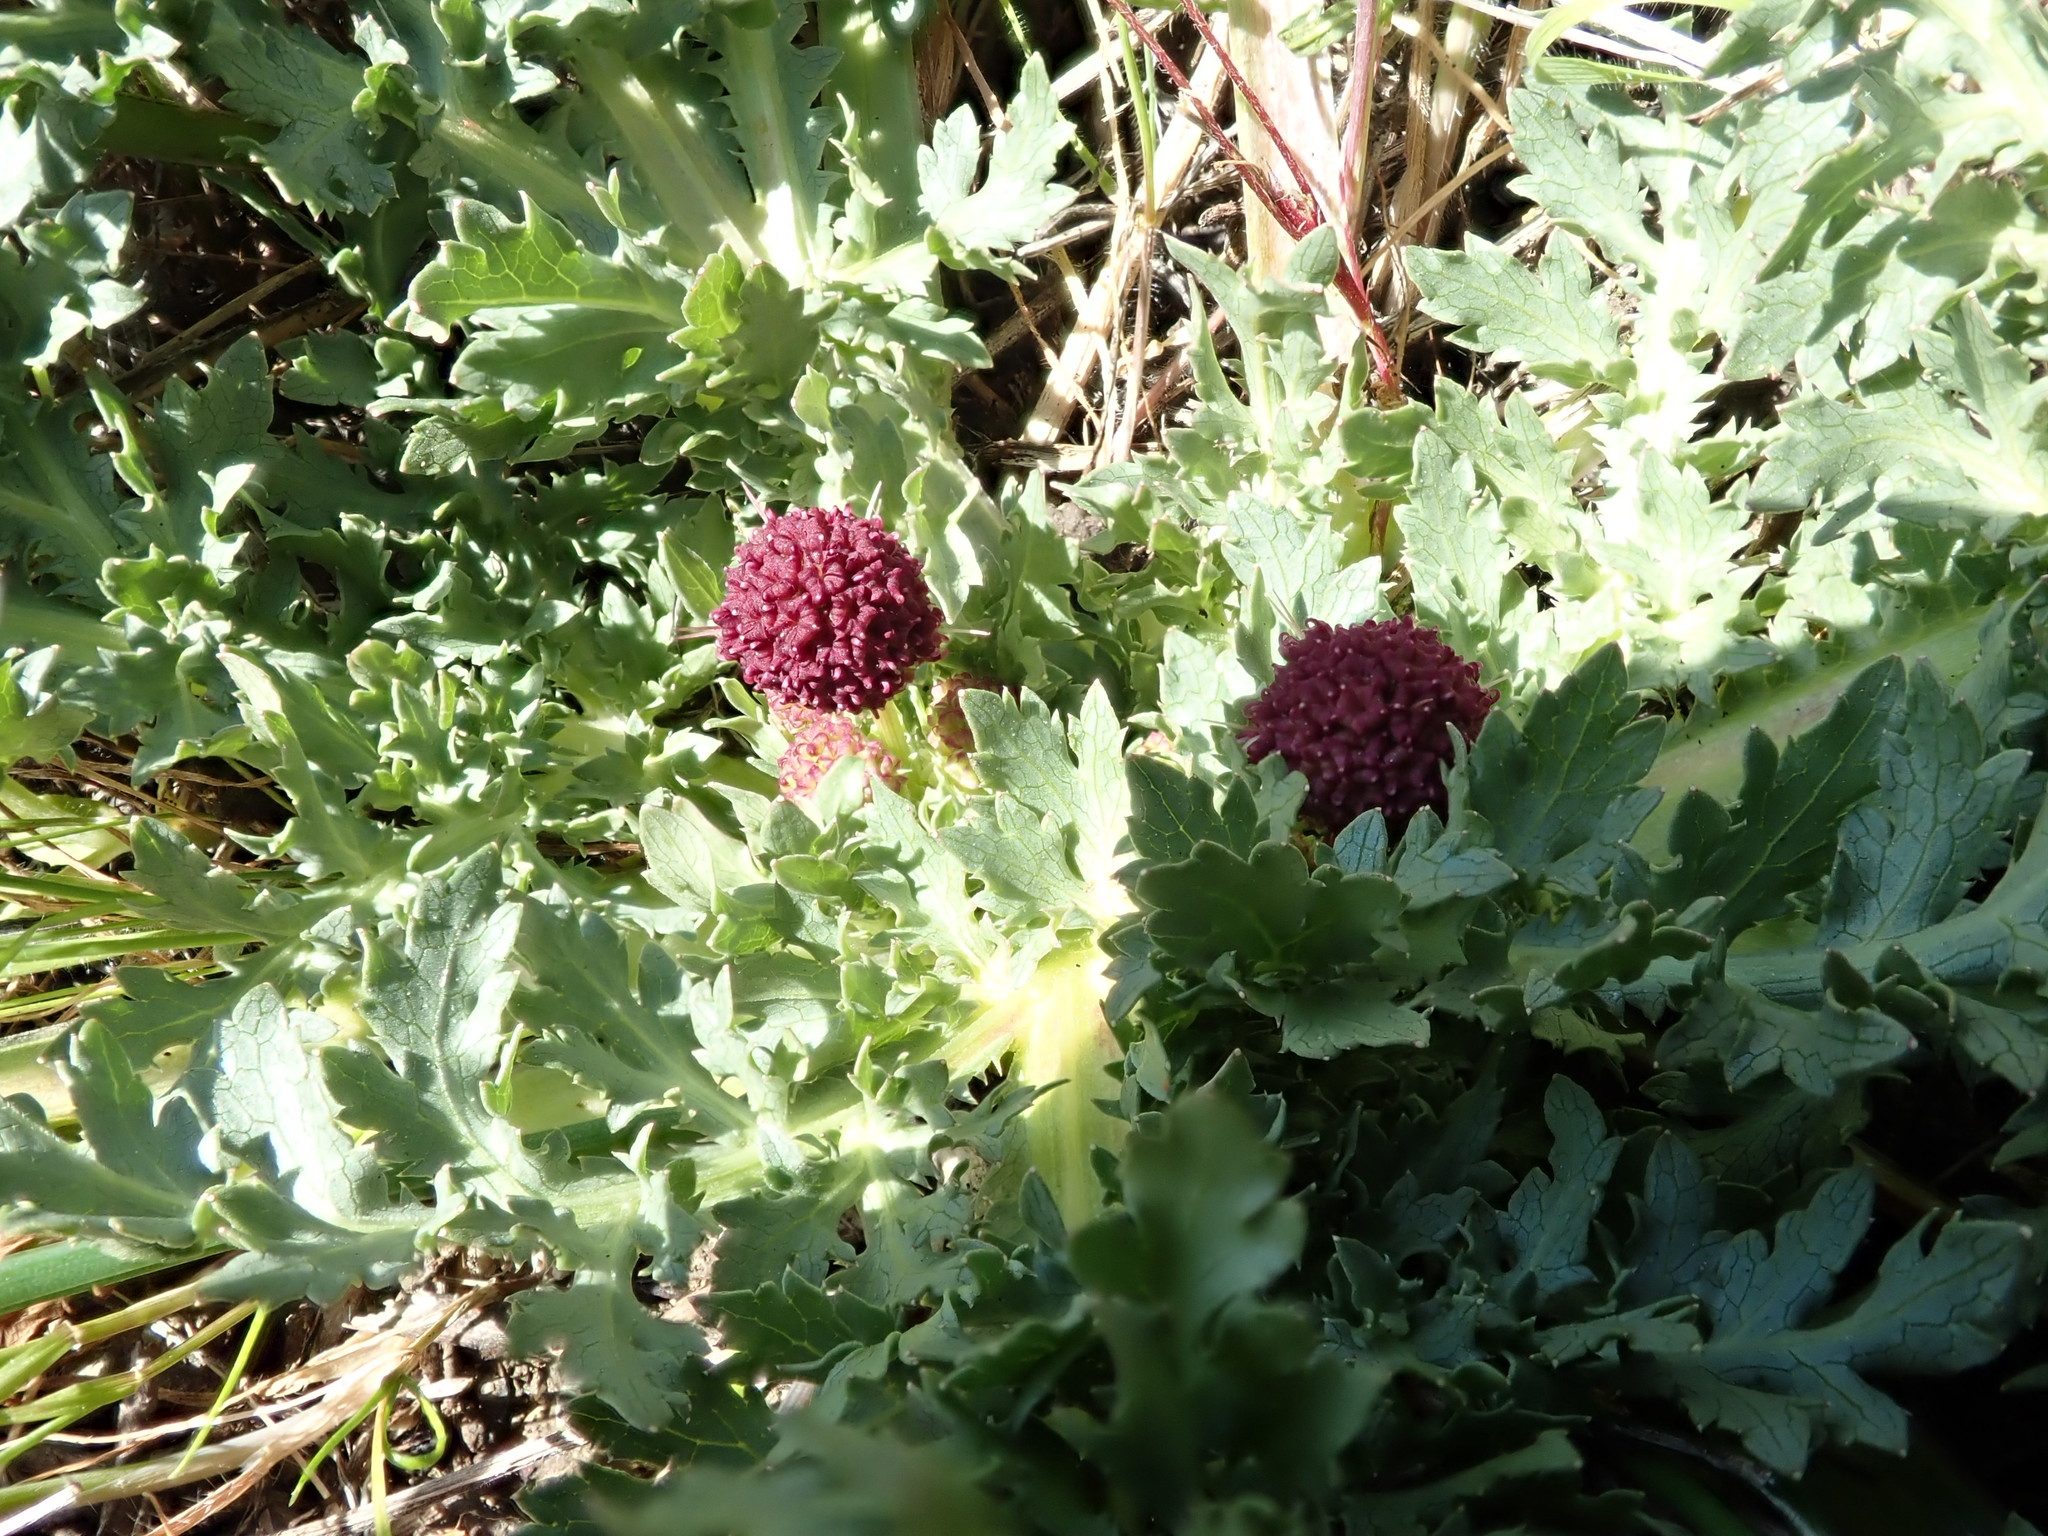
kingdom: Plantae
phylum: Tracheophyta
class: Magnoliopsida
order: Apiales
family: Apiaceae
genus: Sanicula
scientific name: Sanicula bipinnatifida
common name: Shoe-buttons
